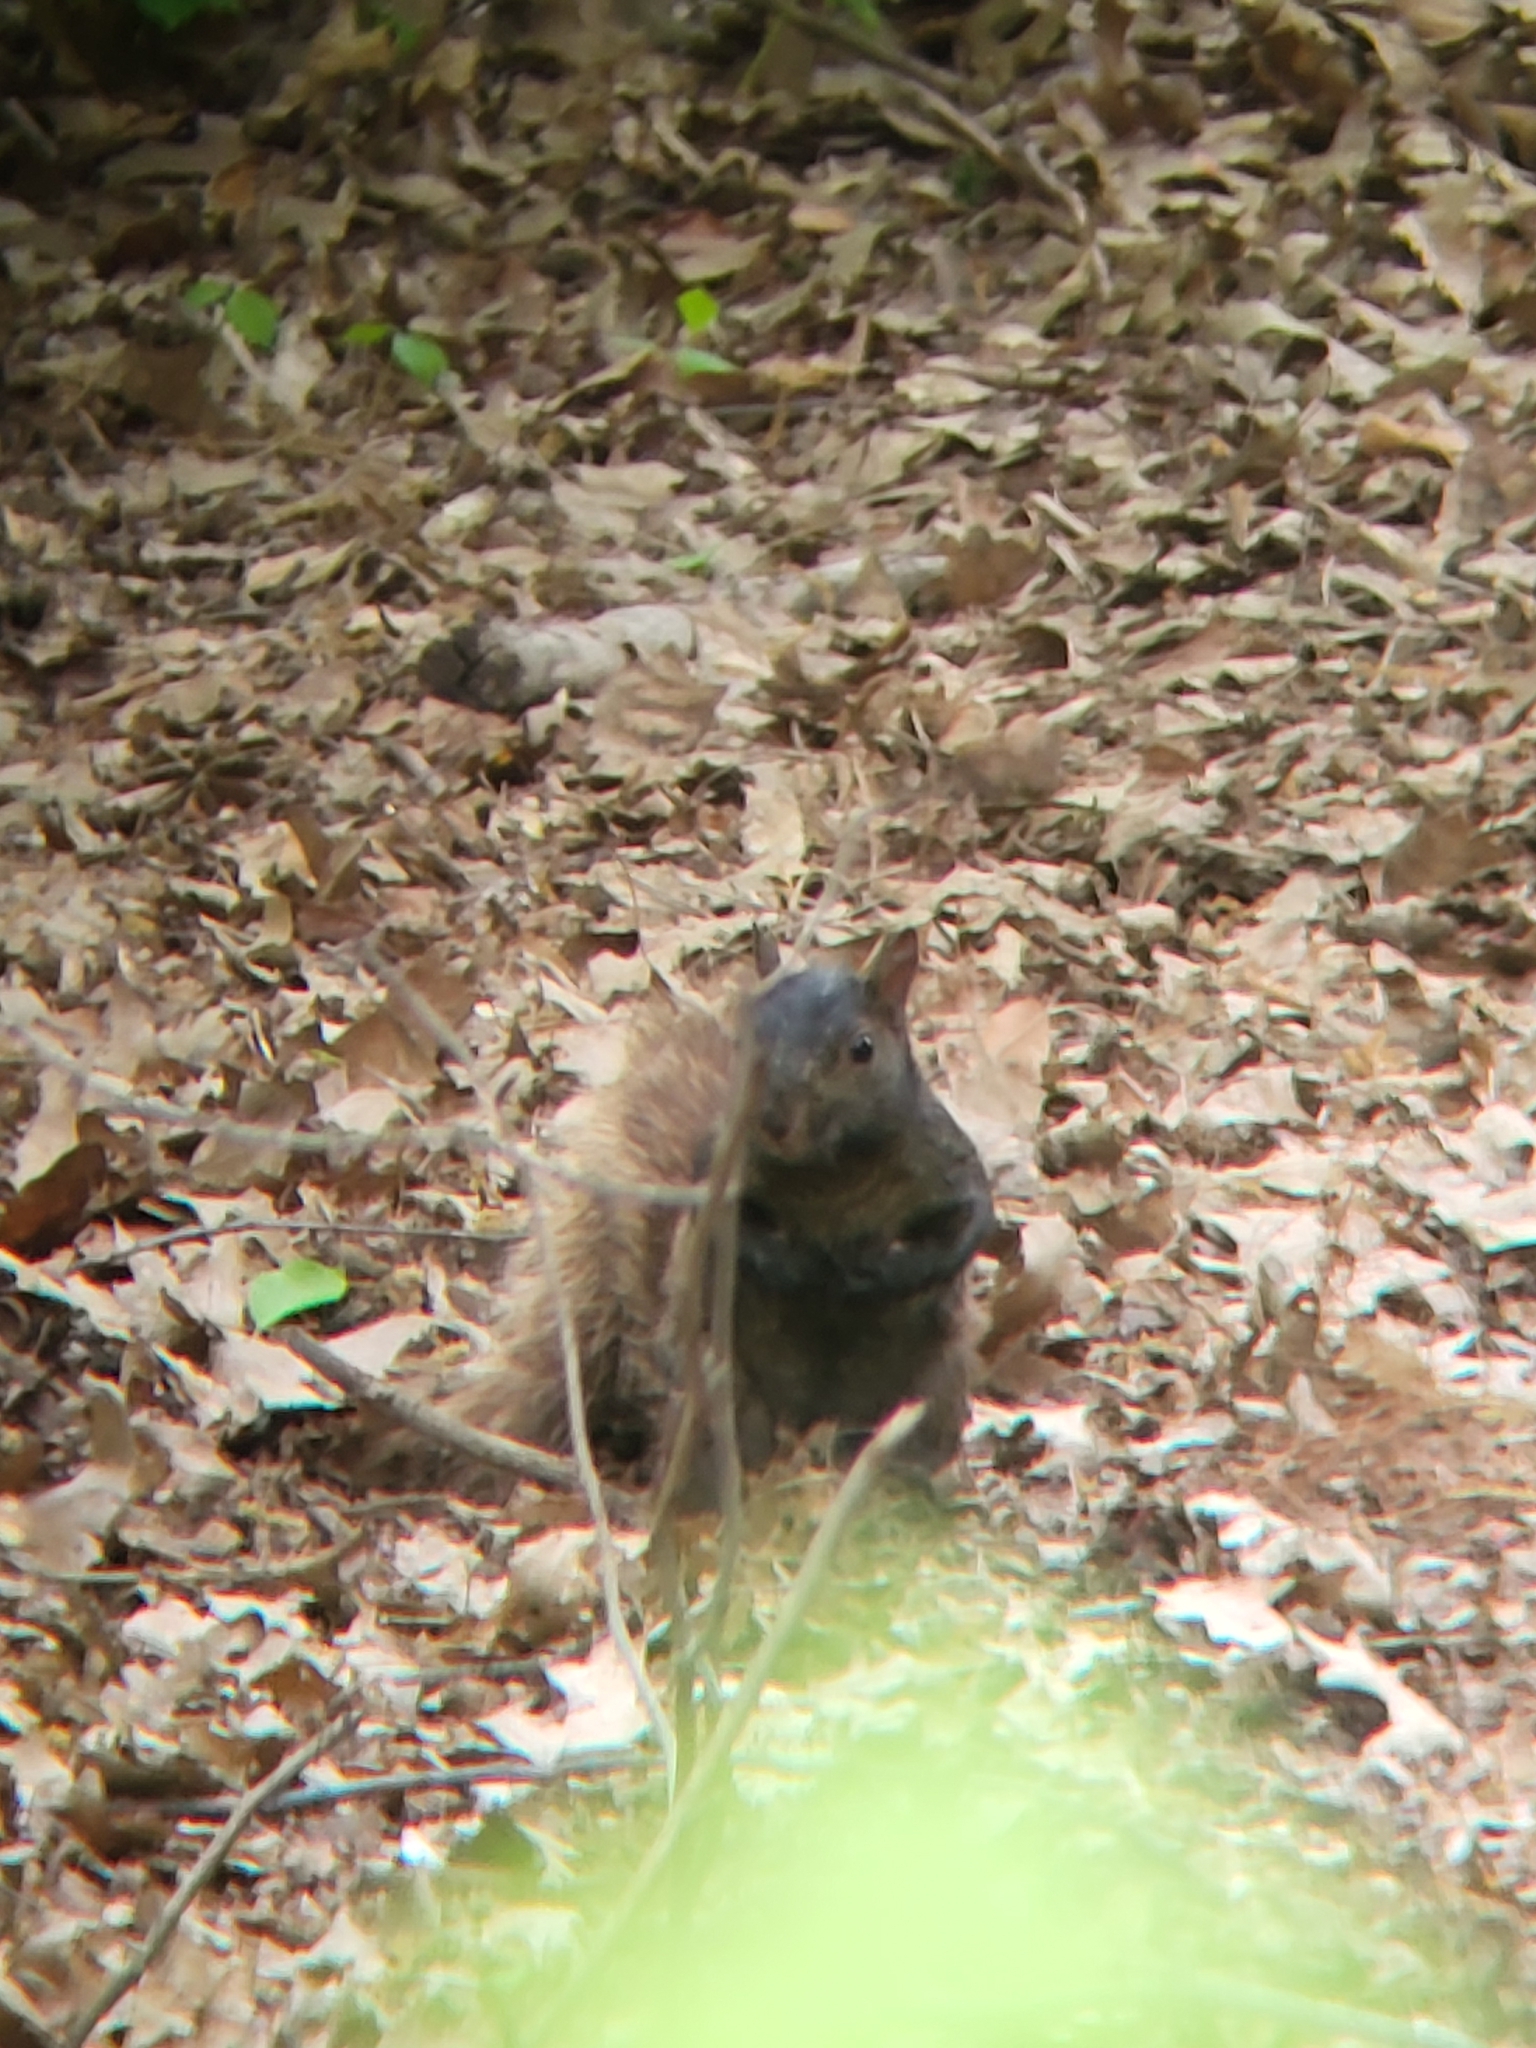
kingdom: Animalia
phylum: Chordata
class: Mammalia
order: Rodentia
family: Sciuridae
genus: Sciurus
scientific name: Sciurus carolinensis
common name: Eastern gray squirrel
